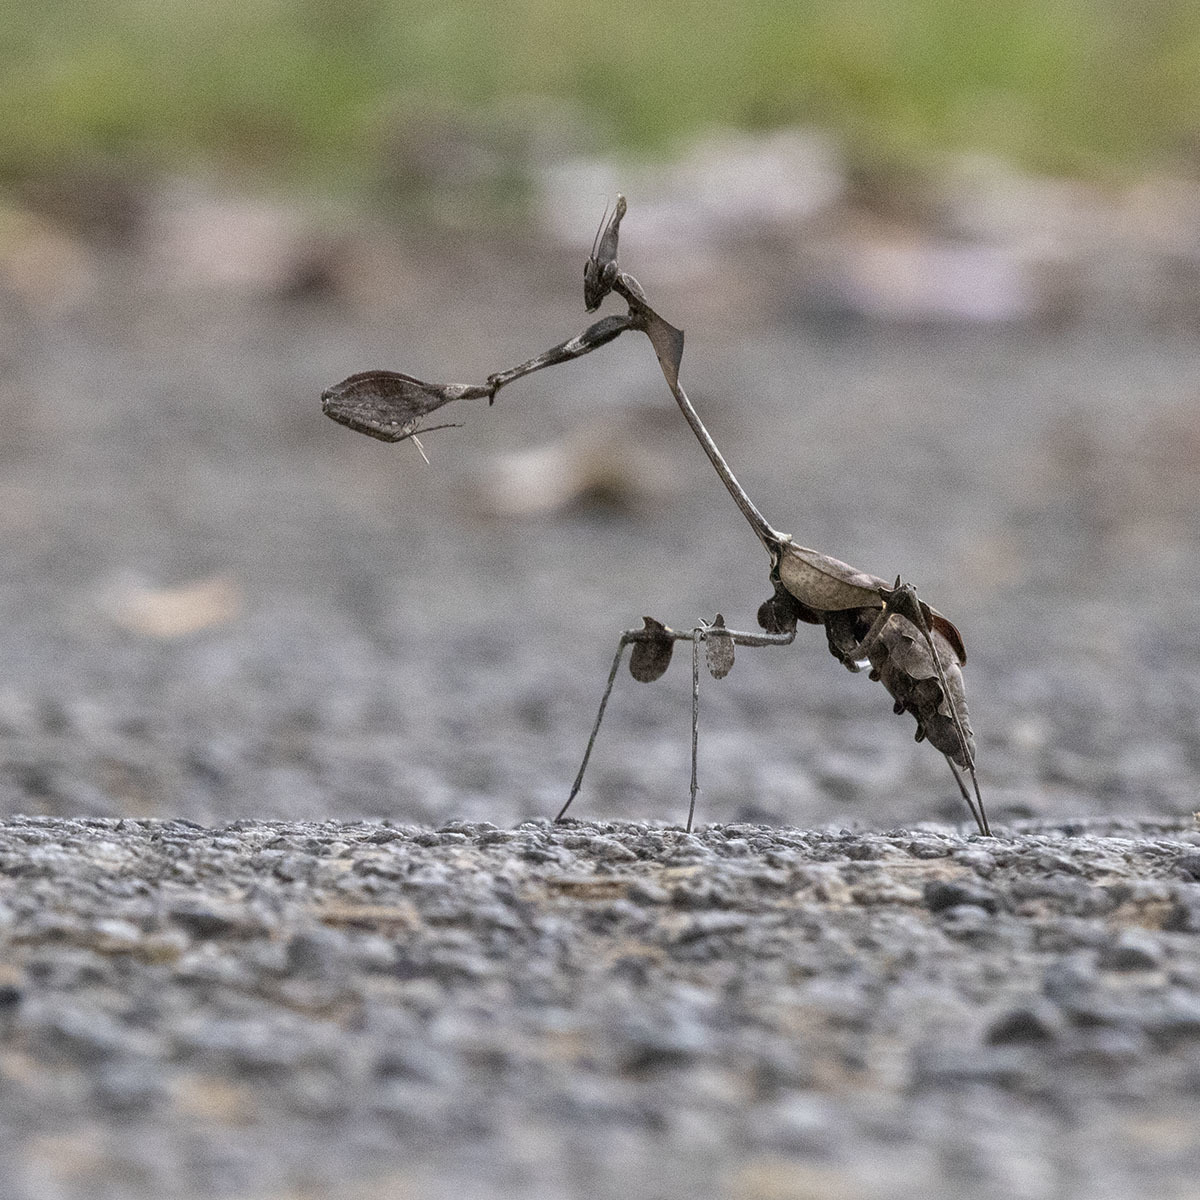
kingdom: Animalia
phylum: Arthropoda
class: Insecta
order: Mantodea
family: Empusidae
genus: Gongylus
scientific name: Gongylus gongylodes
